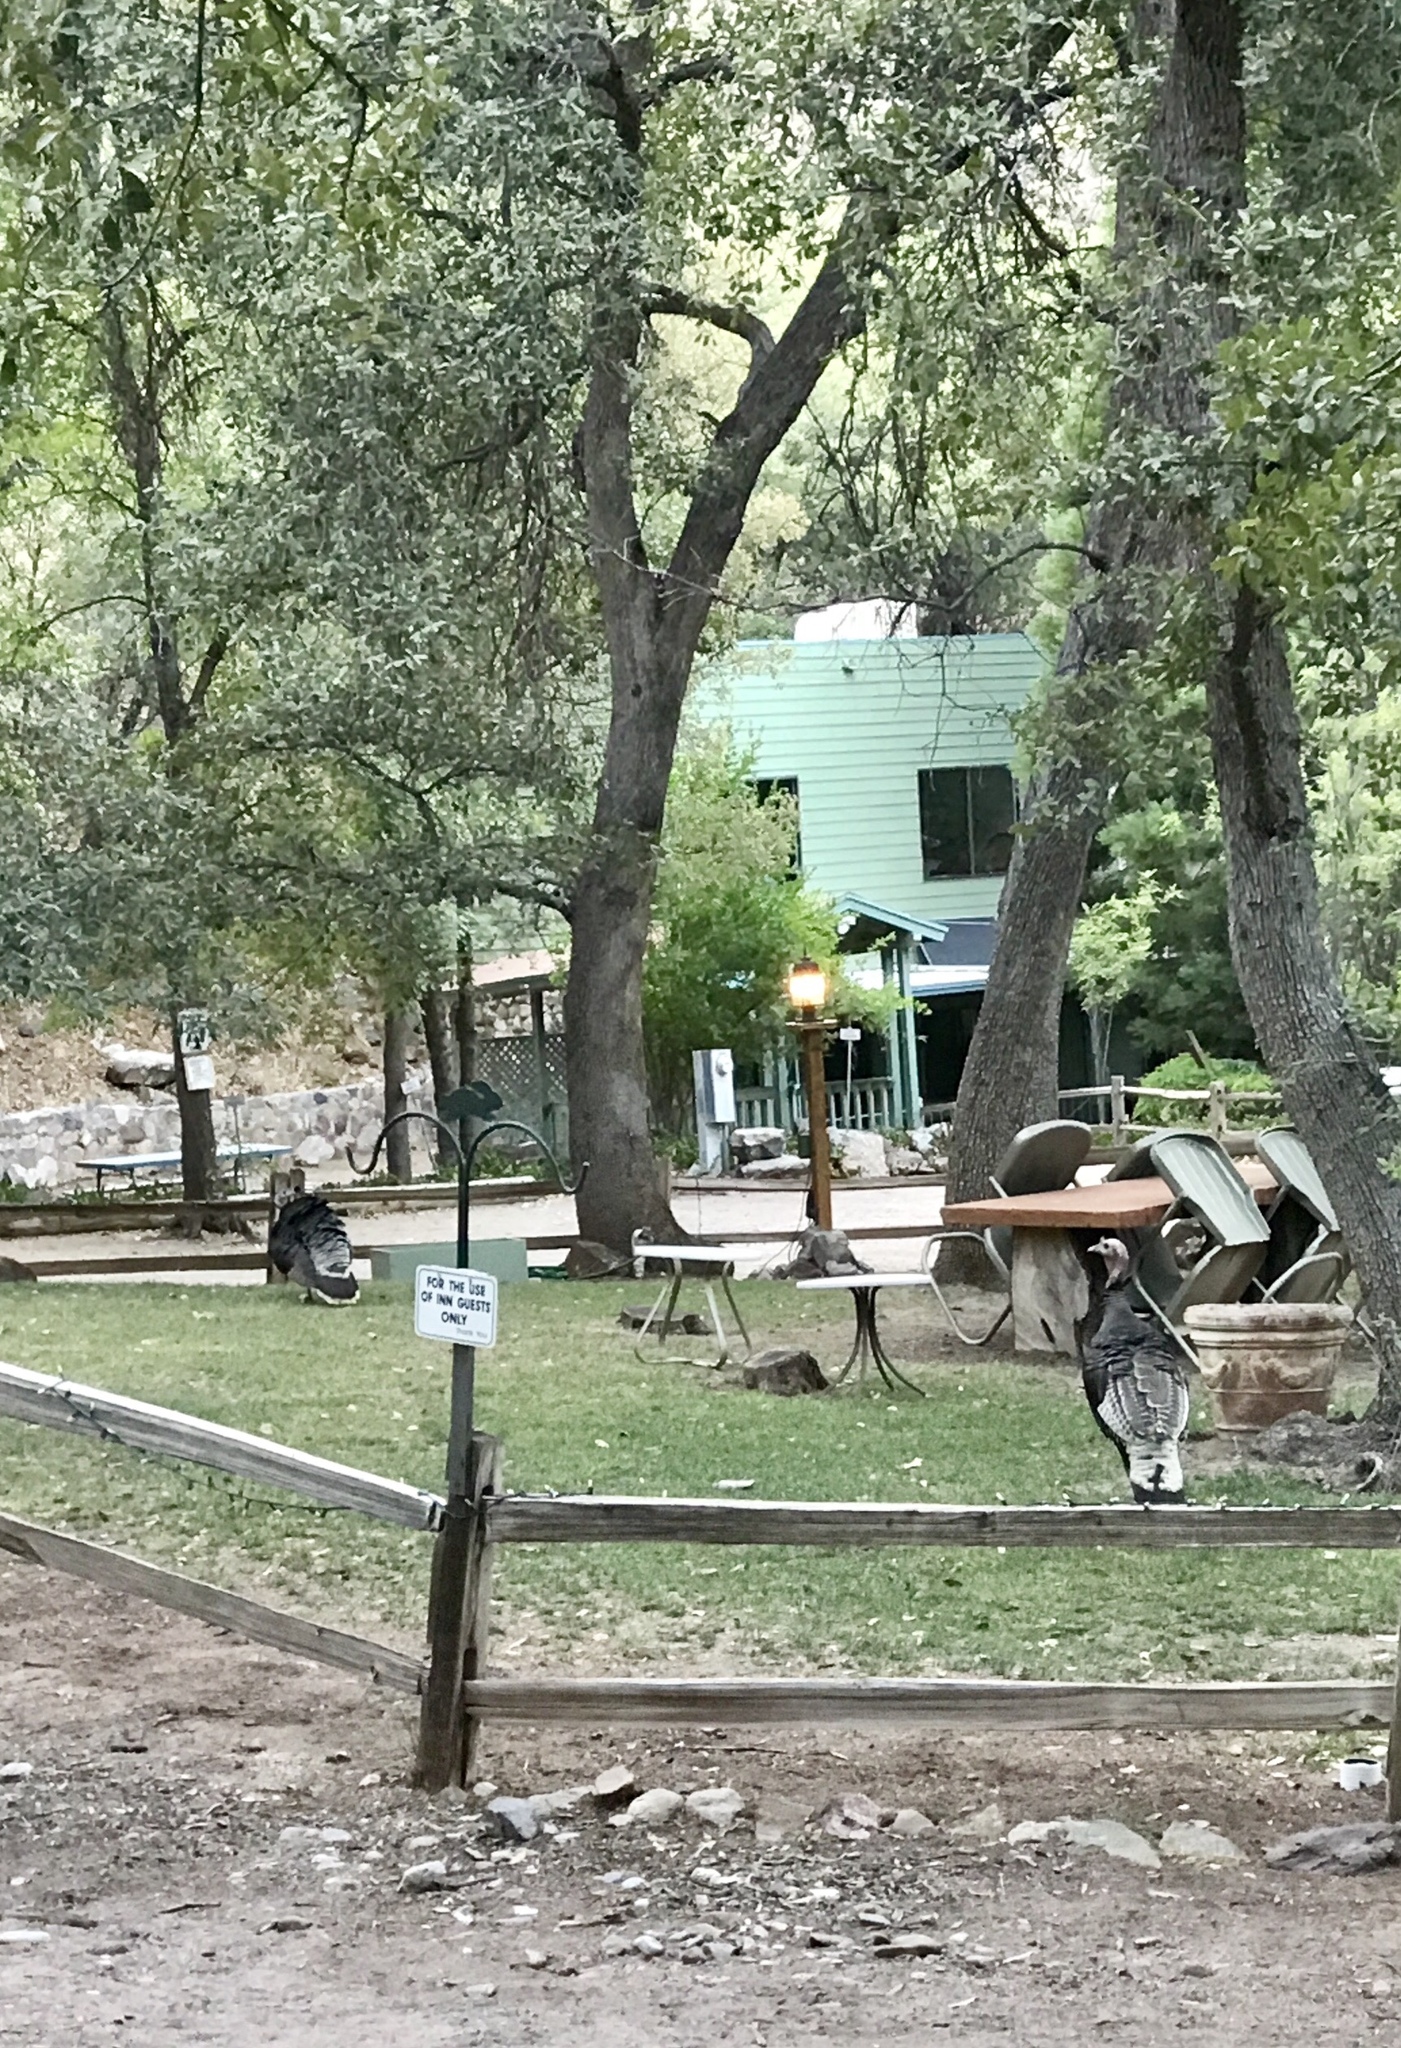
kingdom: Animalia
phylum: Chordata
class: Aves
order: Galliformes
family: Phasianidae
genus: Meleagris
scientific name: Meleagris gallopavo
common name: Wild turkey
